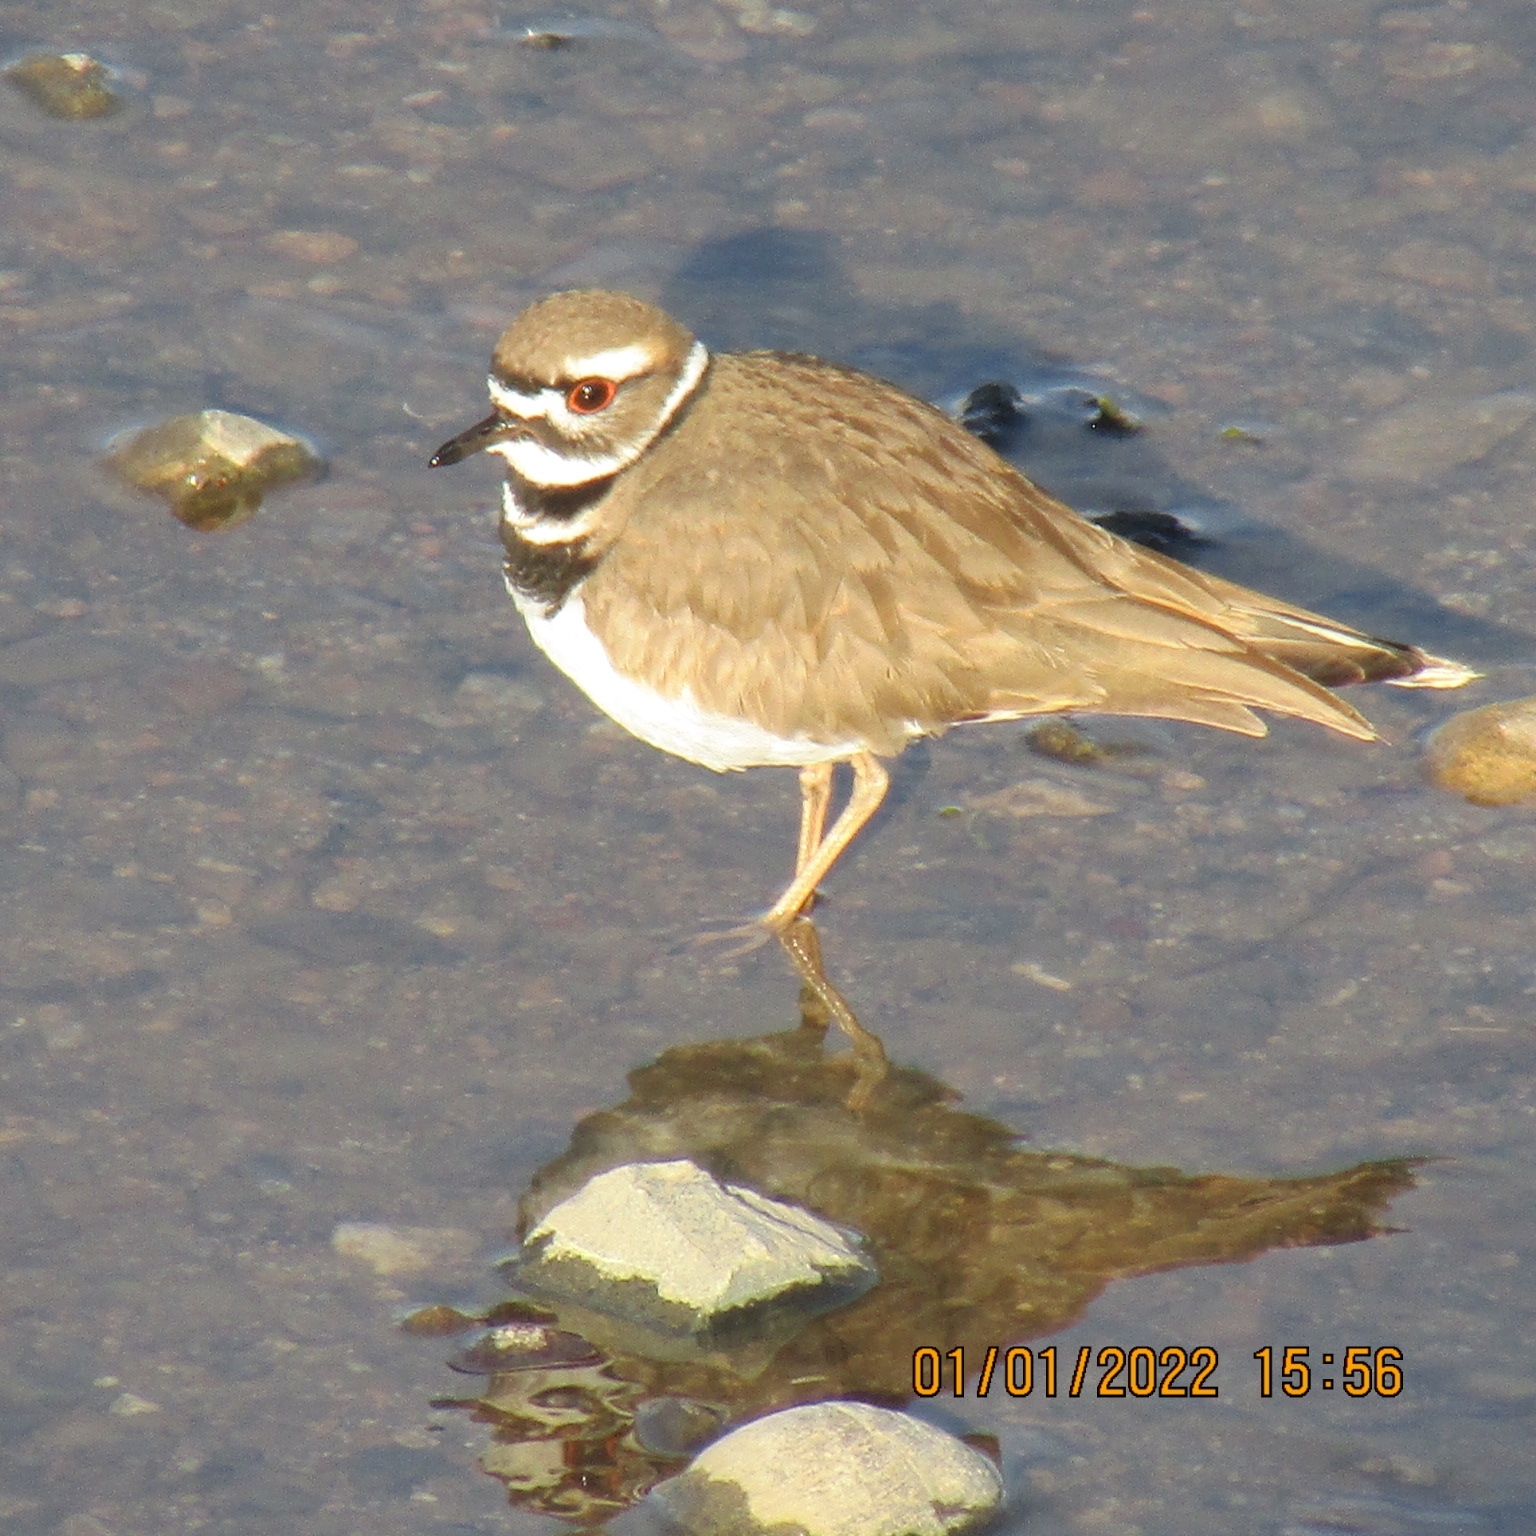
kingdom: Animalia
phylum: Chordata
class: Aves
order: Charadriiformes
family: Charadriidae
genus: Charadrius
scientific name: Charadrius vociferus
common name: Killdeer
